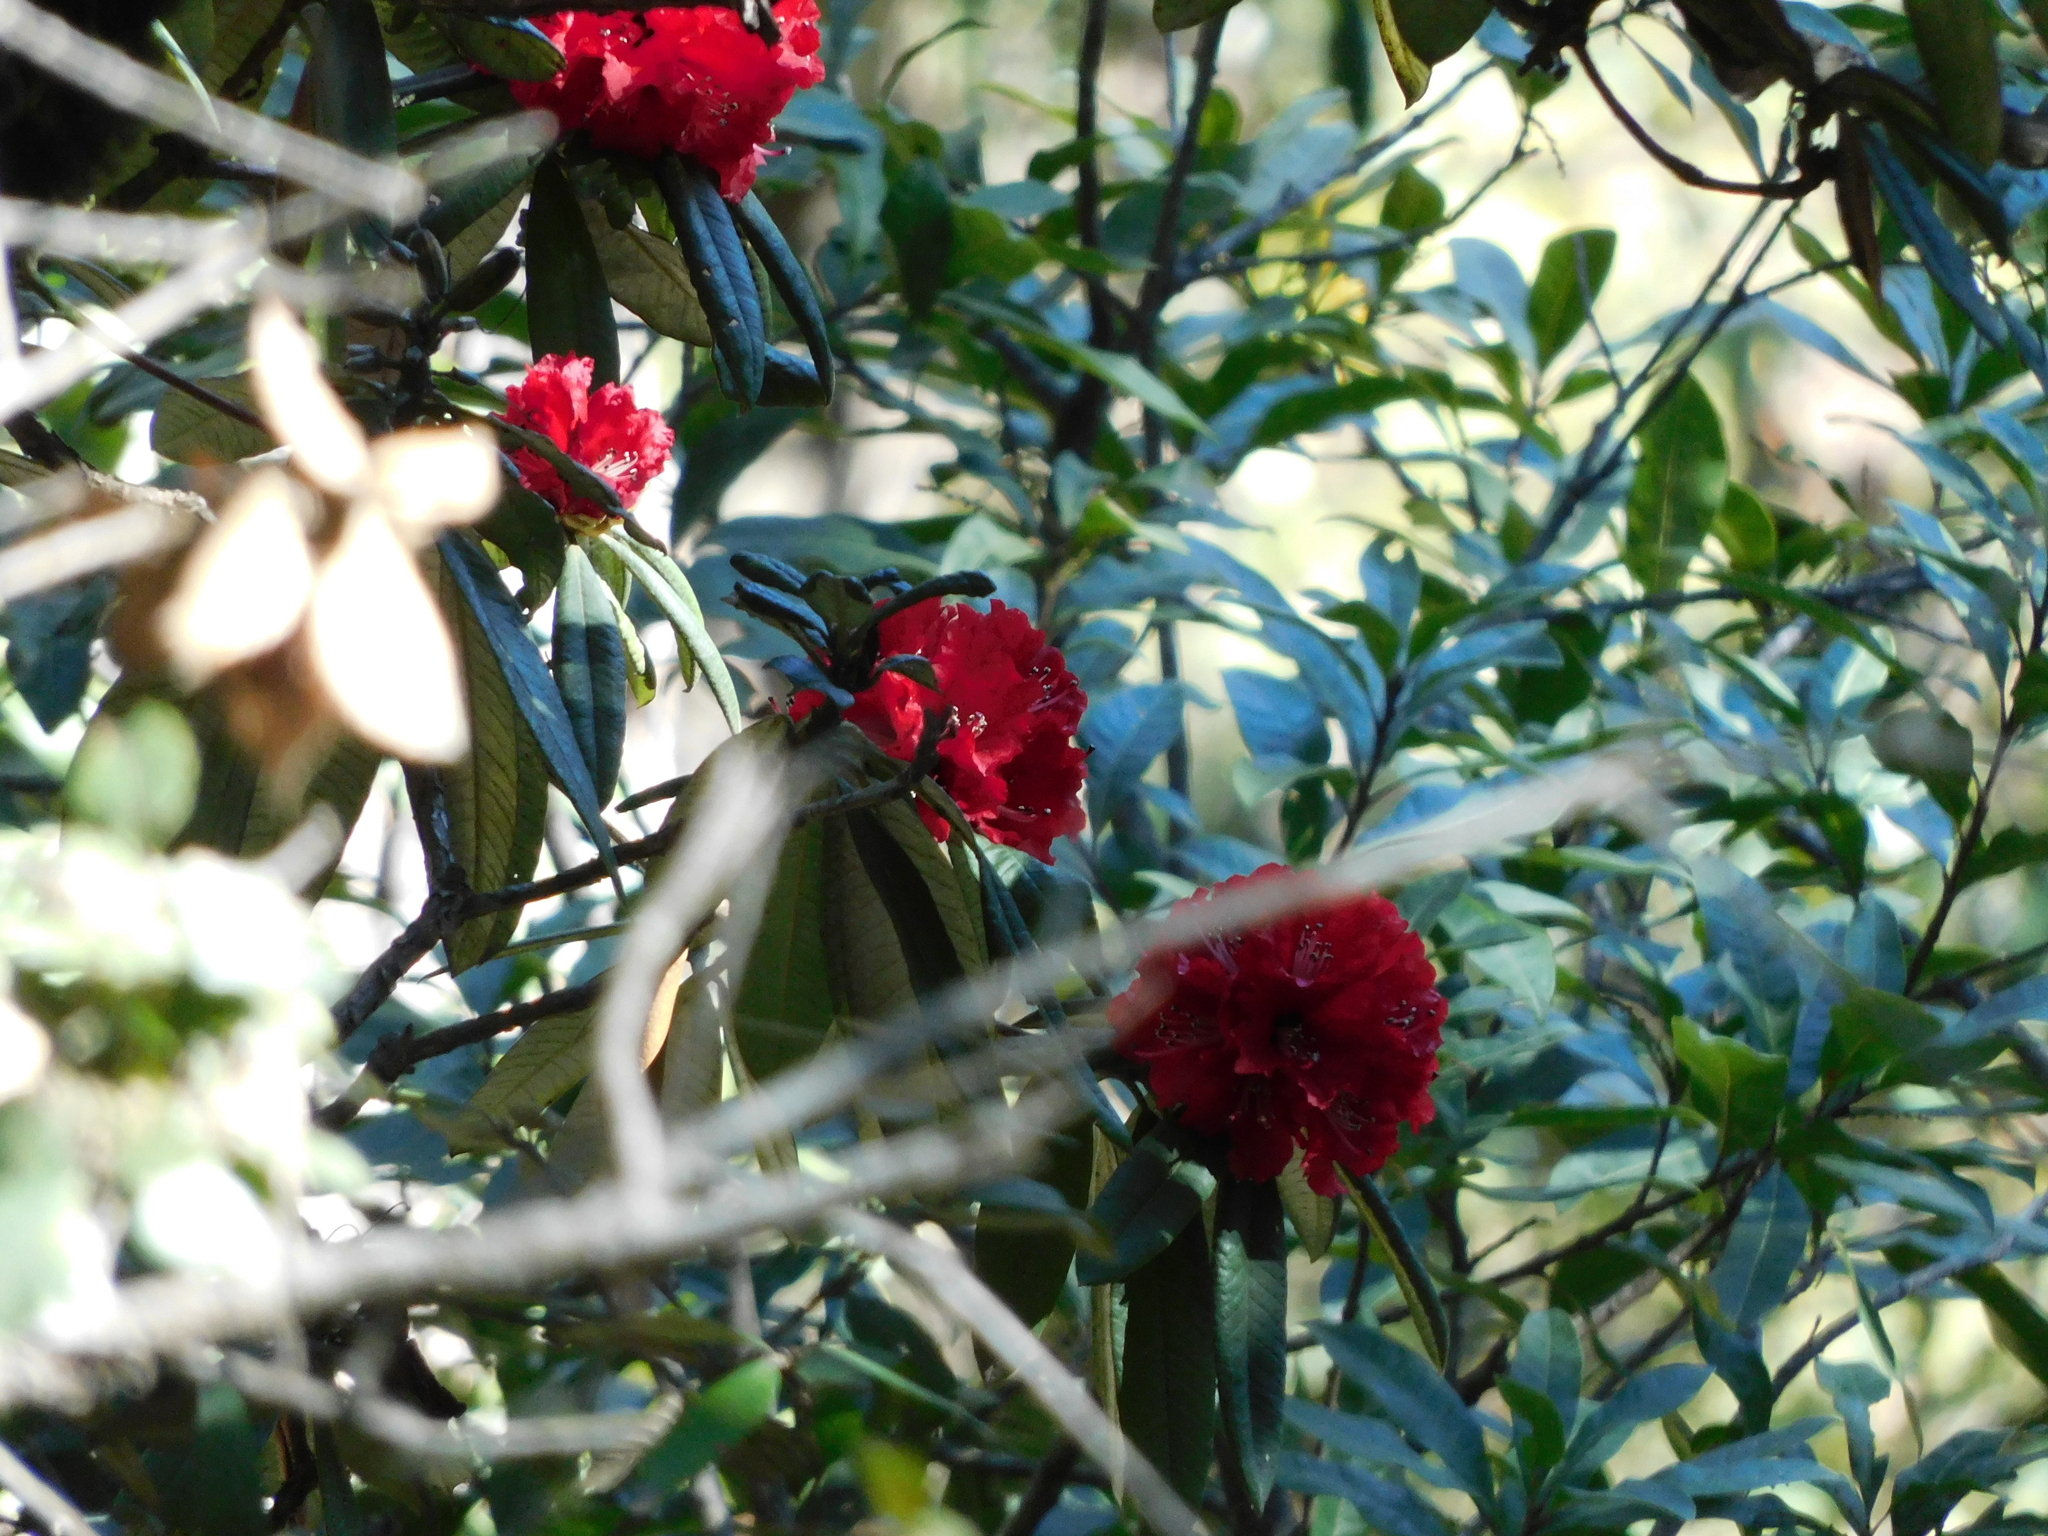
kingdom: Plantae
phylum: Tracheophyta
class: Magnoliopsida
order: Ericales
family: Ericaceae
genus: Rhododendron
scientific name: Rhododendron arboreum
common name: Tree rhododendron
